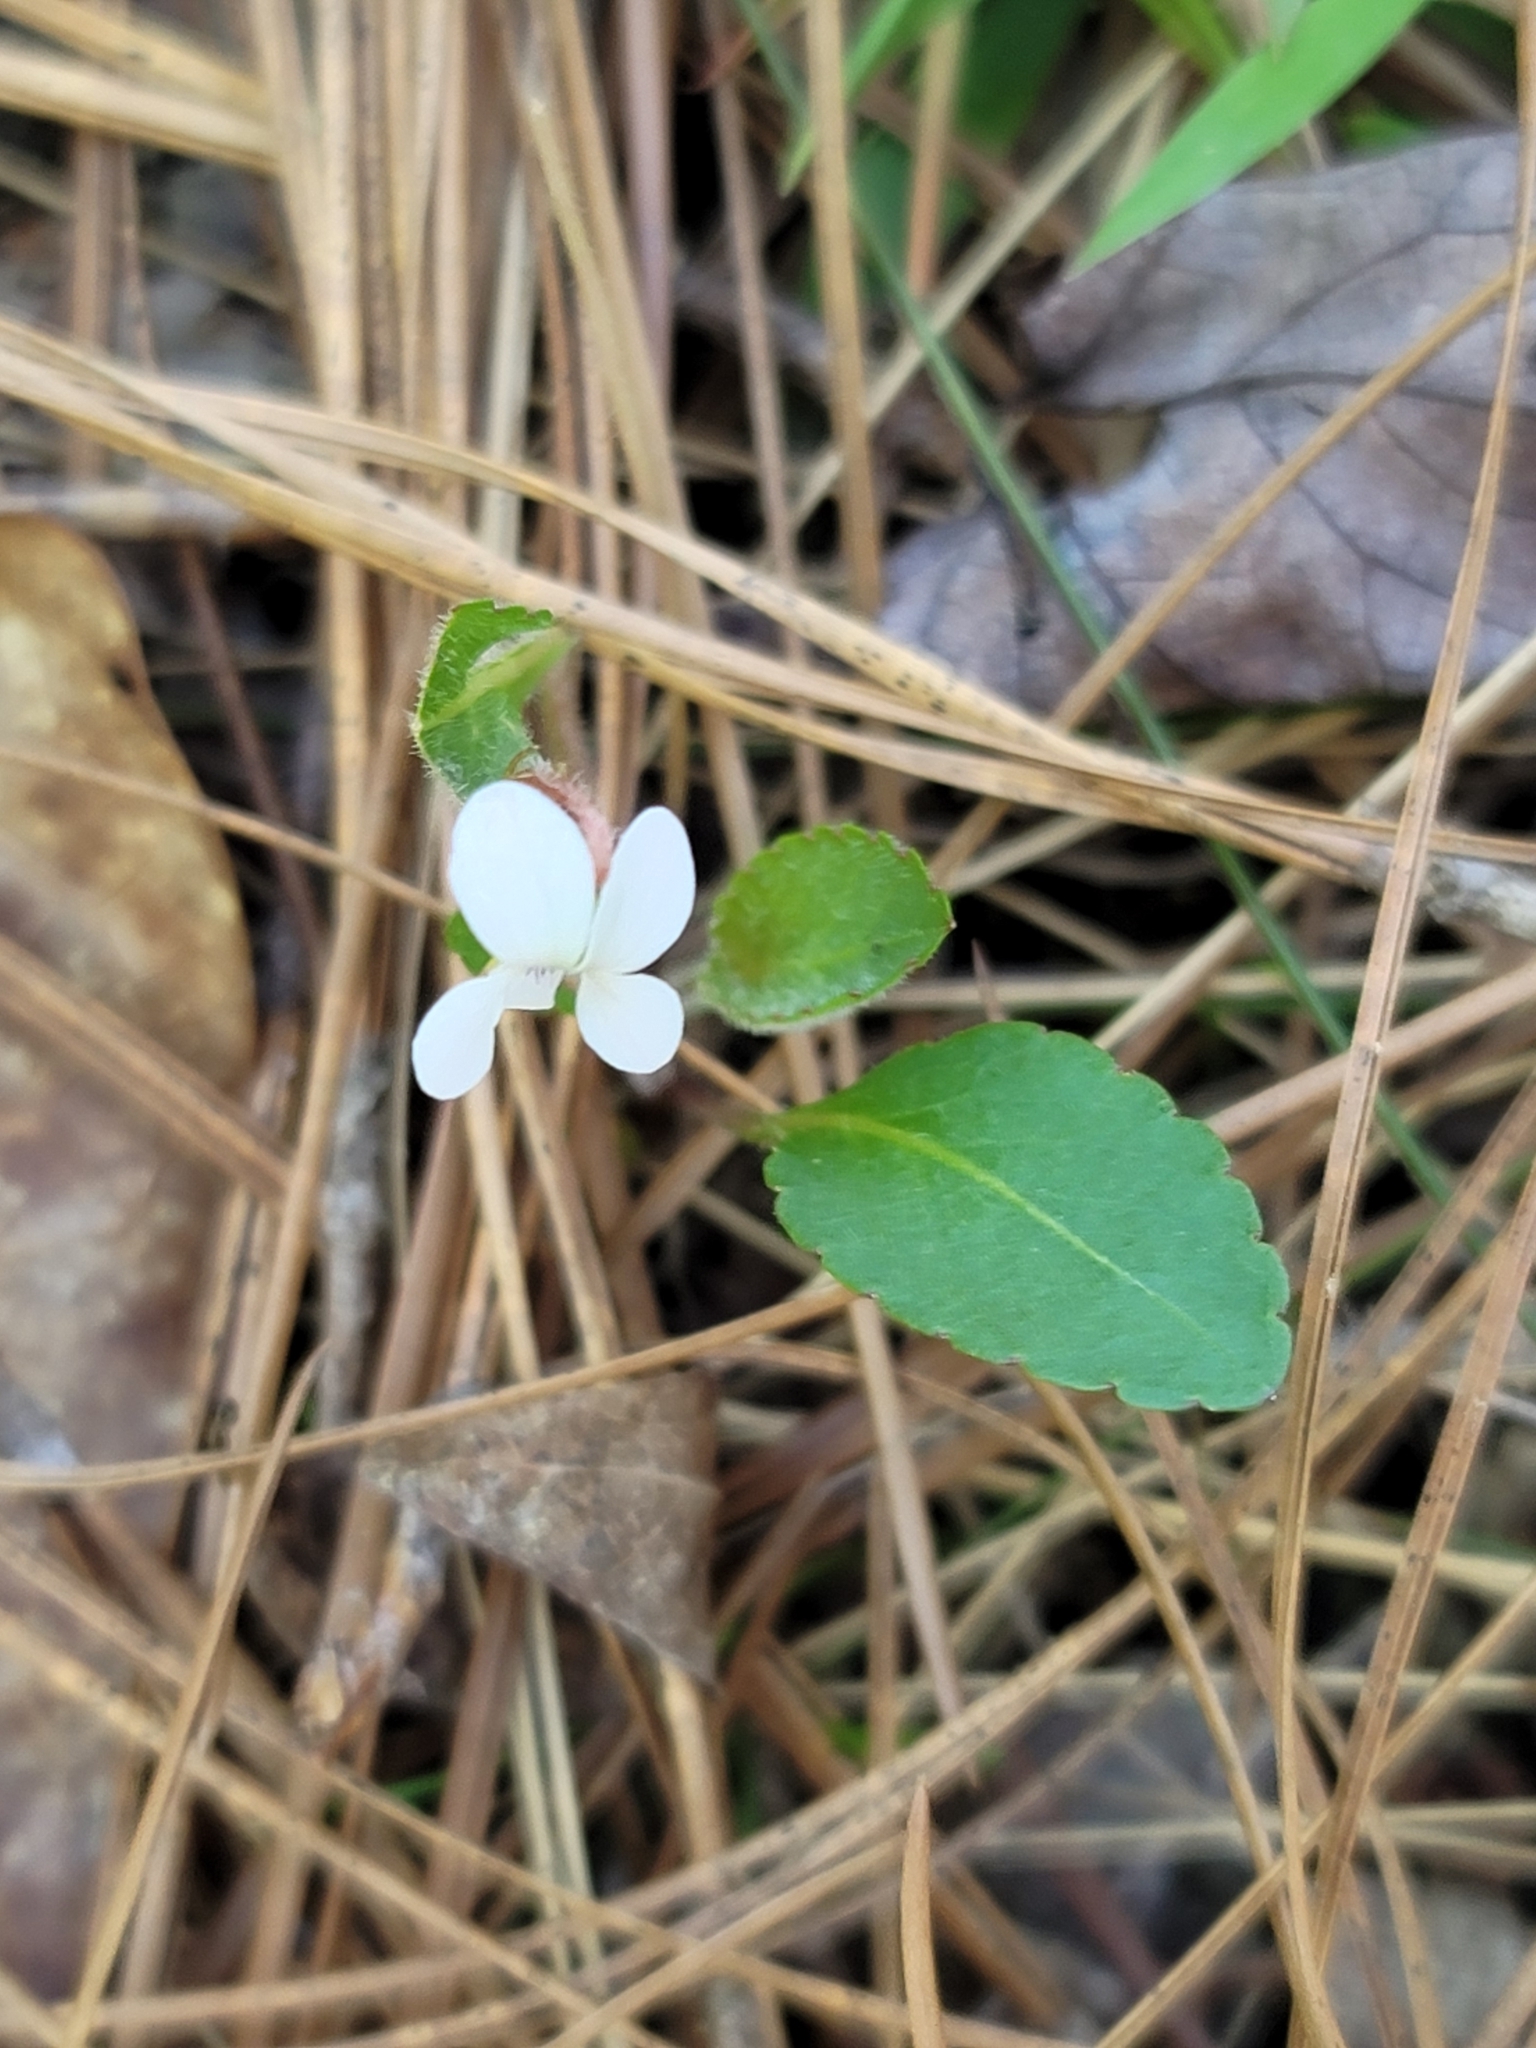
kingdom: Plantae
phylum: Tracheophyta
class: Magnoliopsida
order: Malpighiales
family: Violaceae
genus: Viola
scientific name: Viola primulifolia
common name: Primrose-leaf violet
